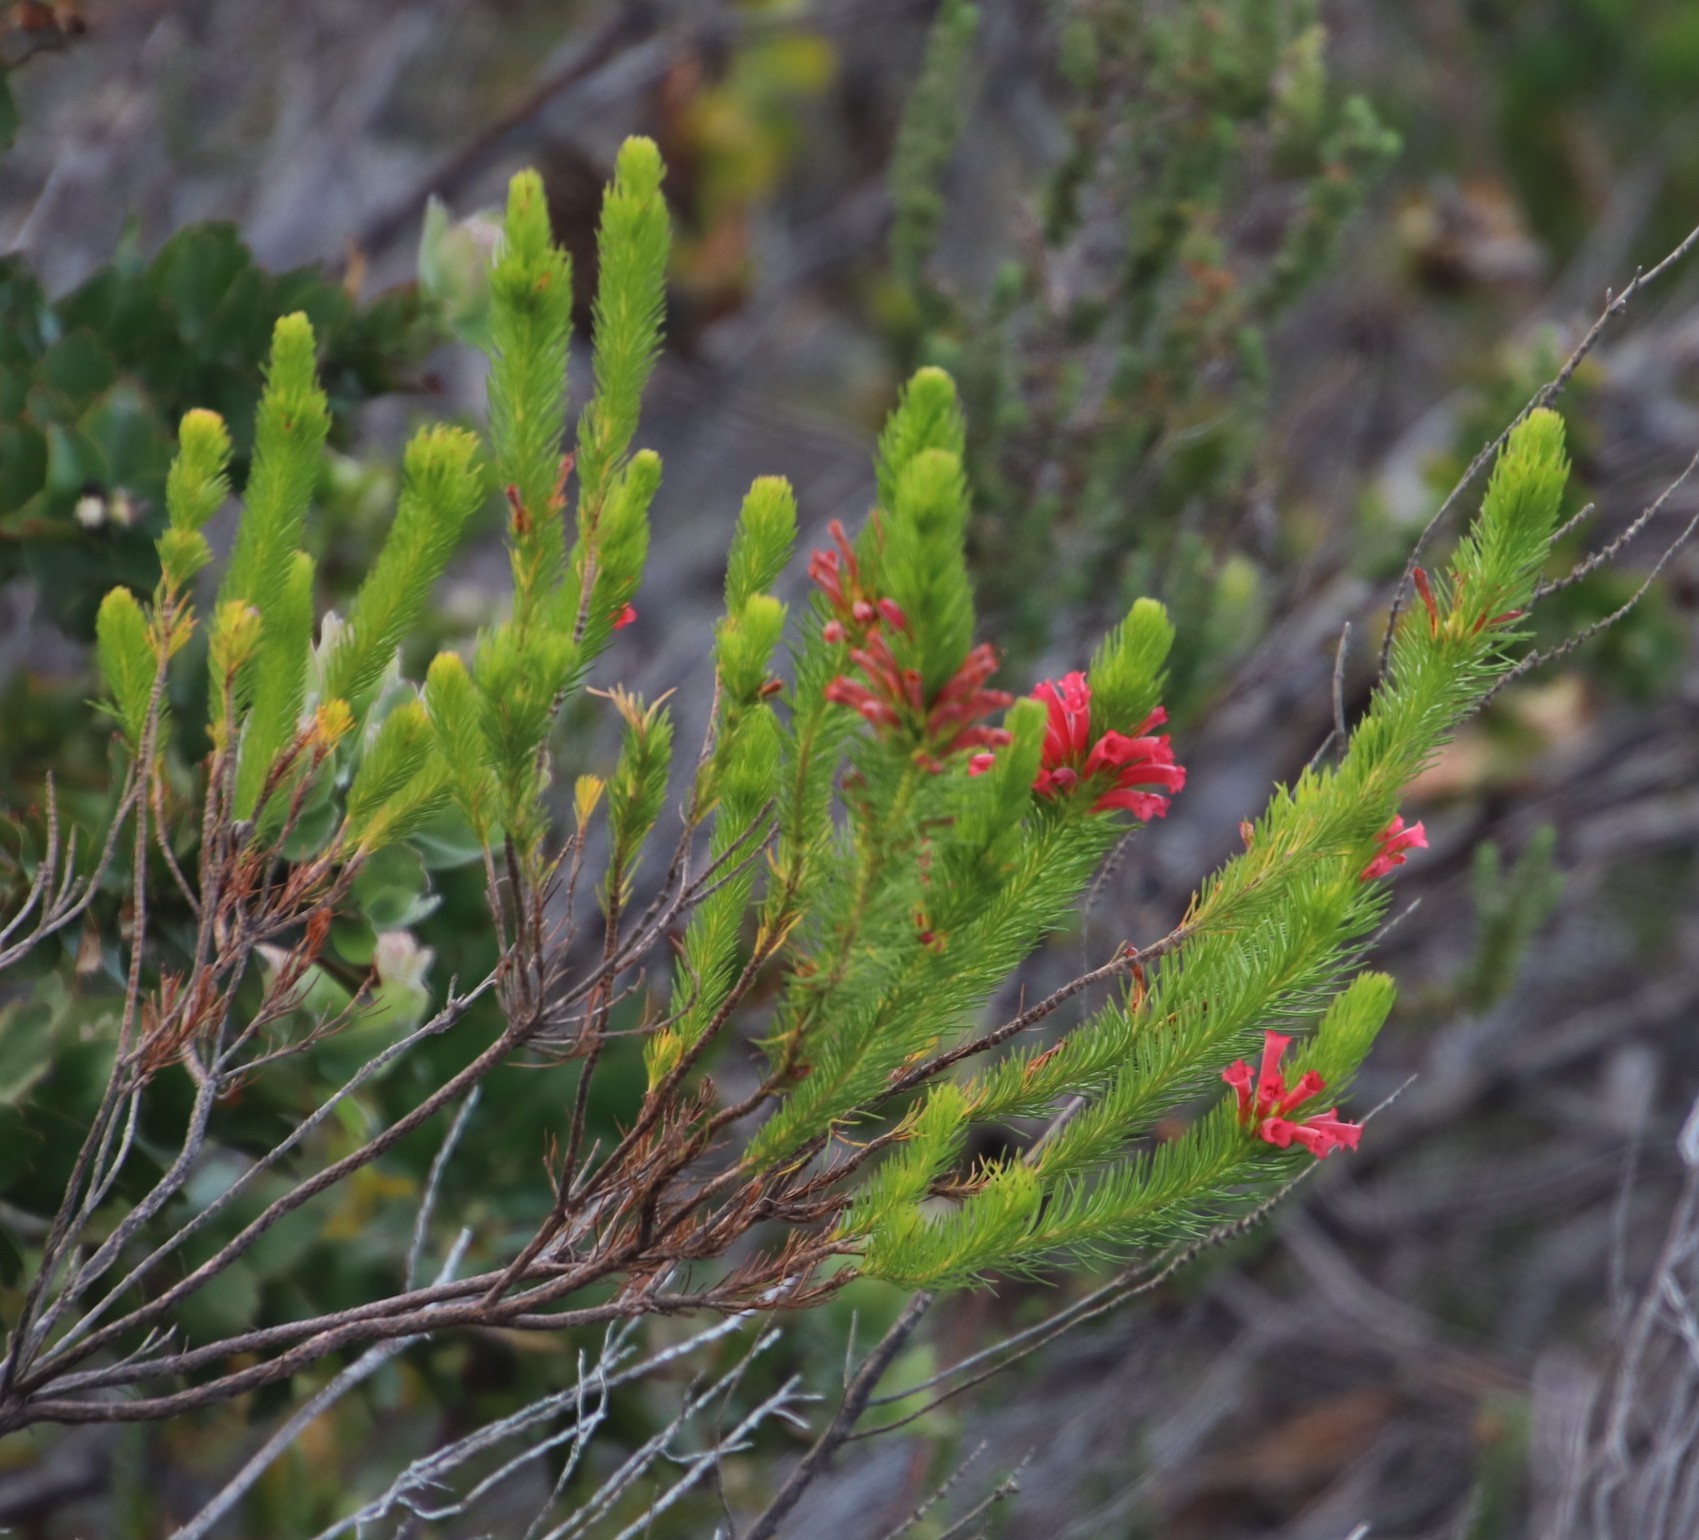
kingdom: Plantae
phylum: Tracheophyta
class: Magnoliopsida
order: Ericales
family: Ericaceae
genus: Erica
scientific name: Erica vestita
